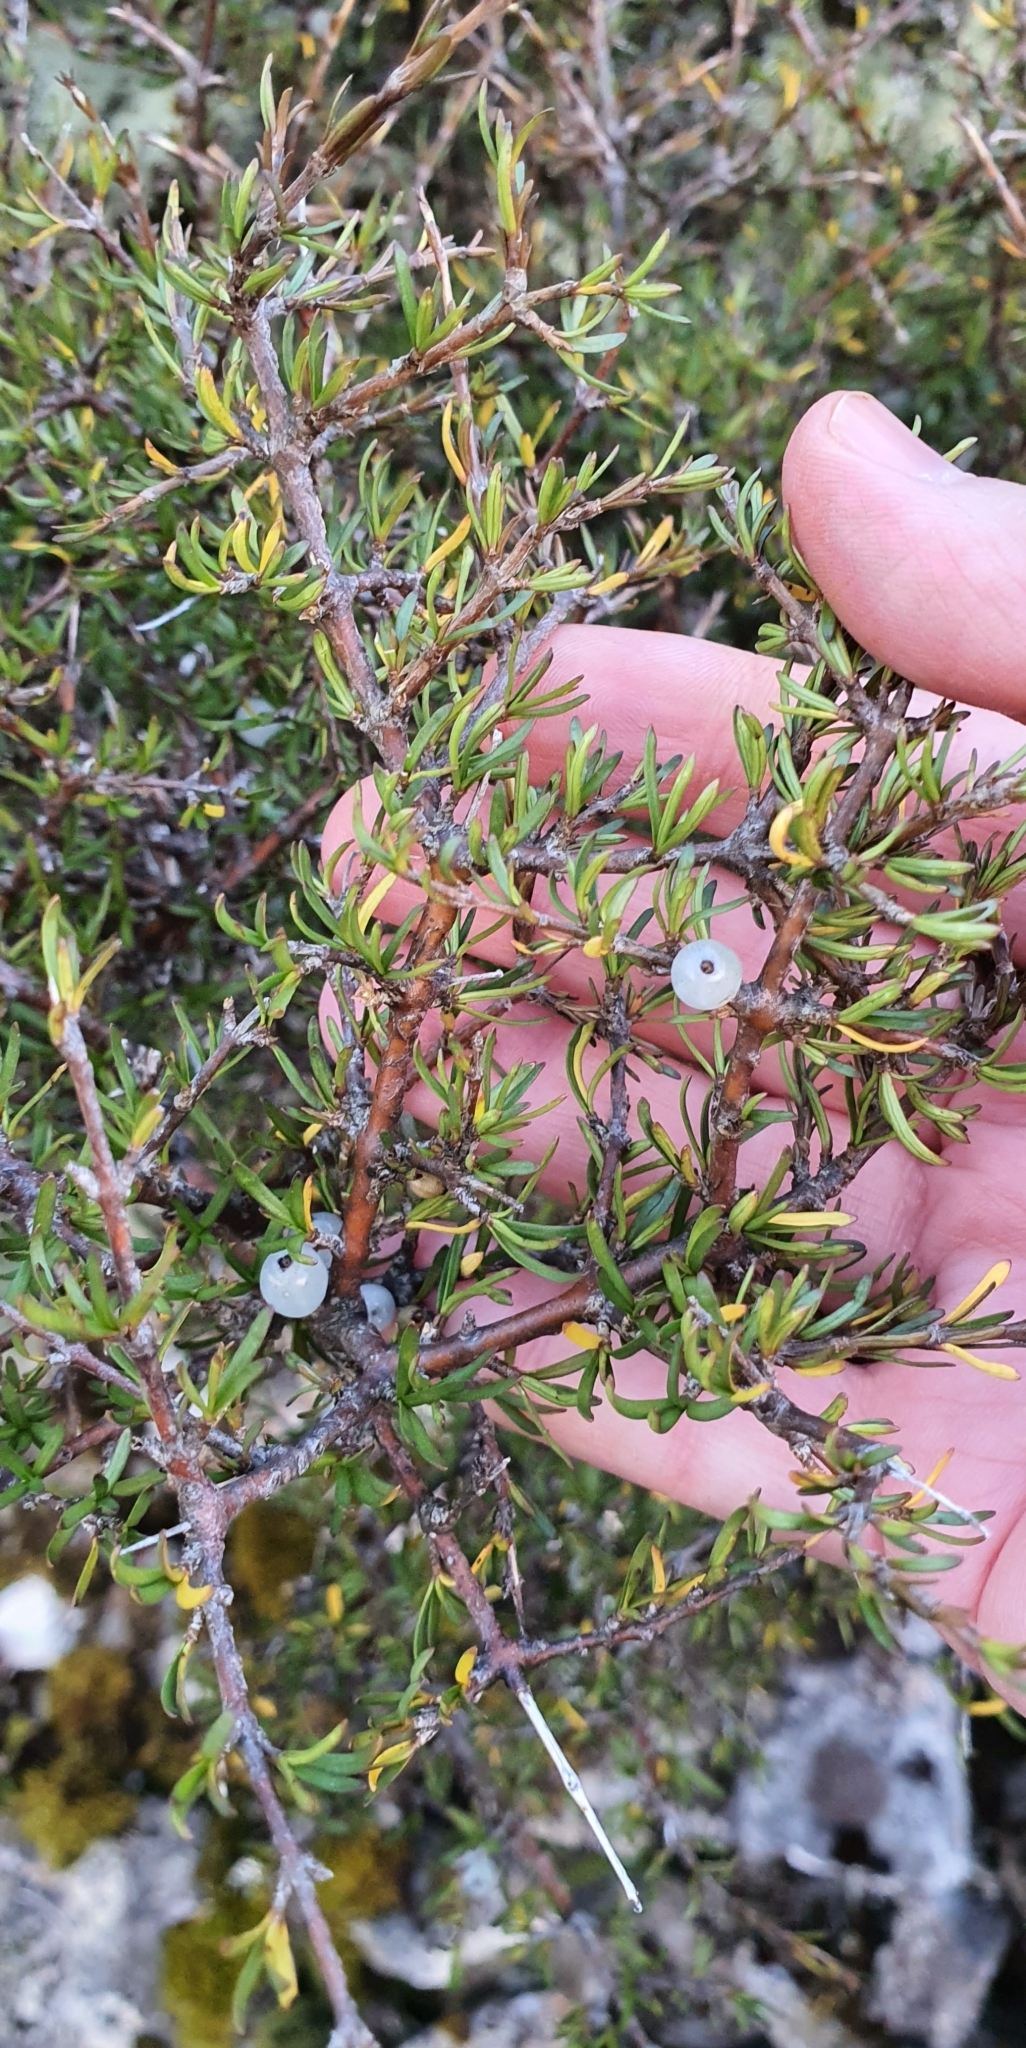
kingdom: Plantae
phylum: Tracheophyta
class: Magnoliopsida
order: Gentianales
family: Rubiaceae
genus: Coprosma
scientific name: Coprosma rugosa
